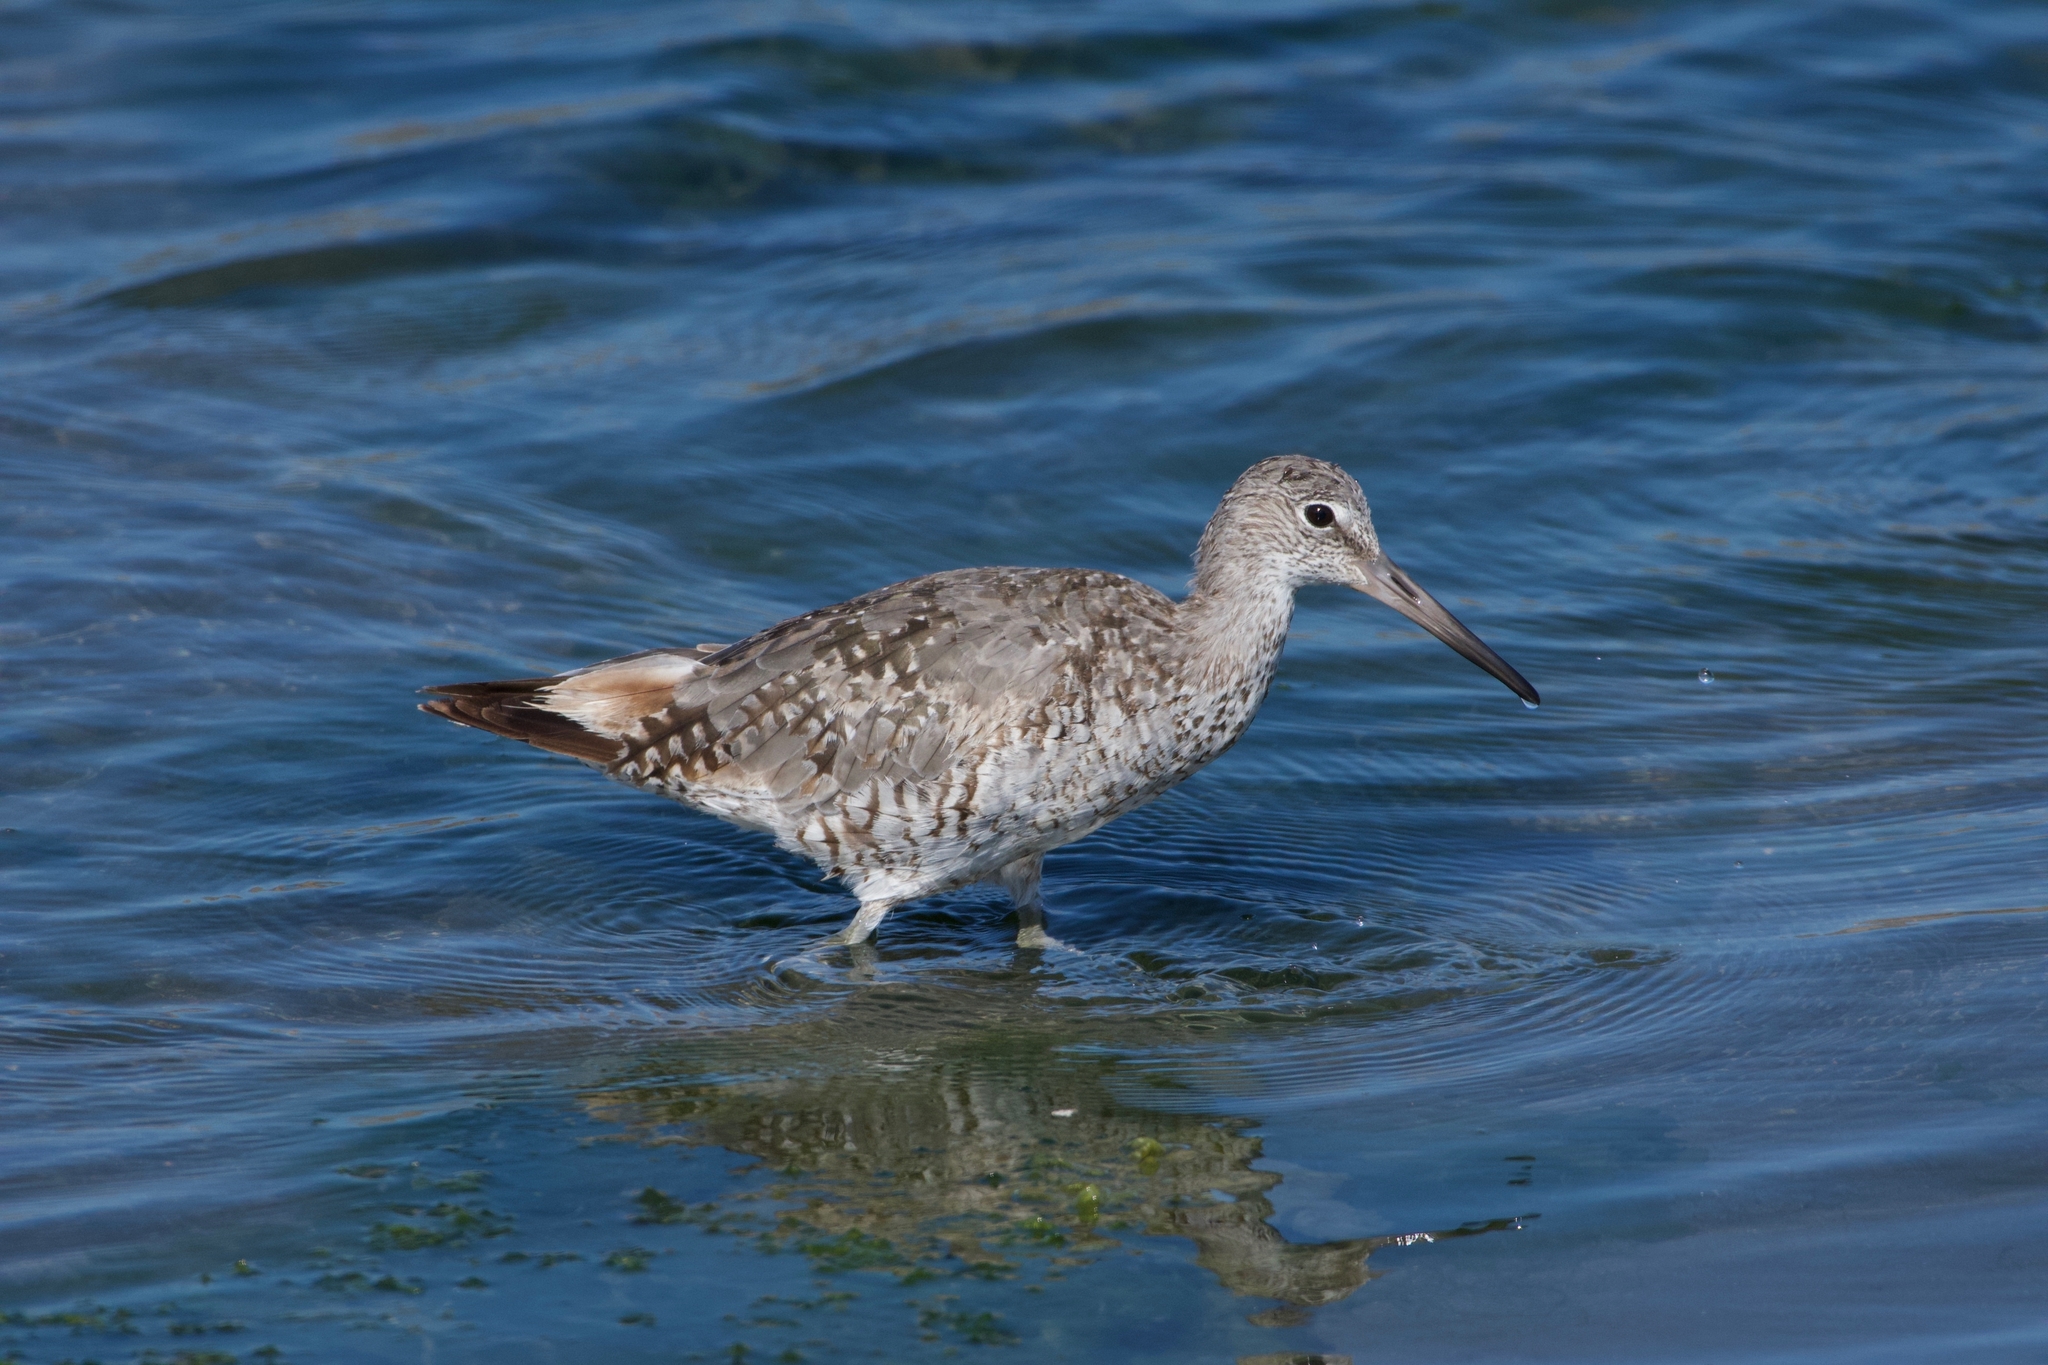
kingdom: Animalia
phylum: Chordata
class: Aves
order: Charadriiformes
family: Scolopacidae
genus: Tringa
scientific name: Tringa semipalmata
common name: Willet
